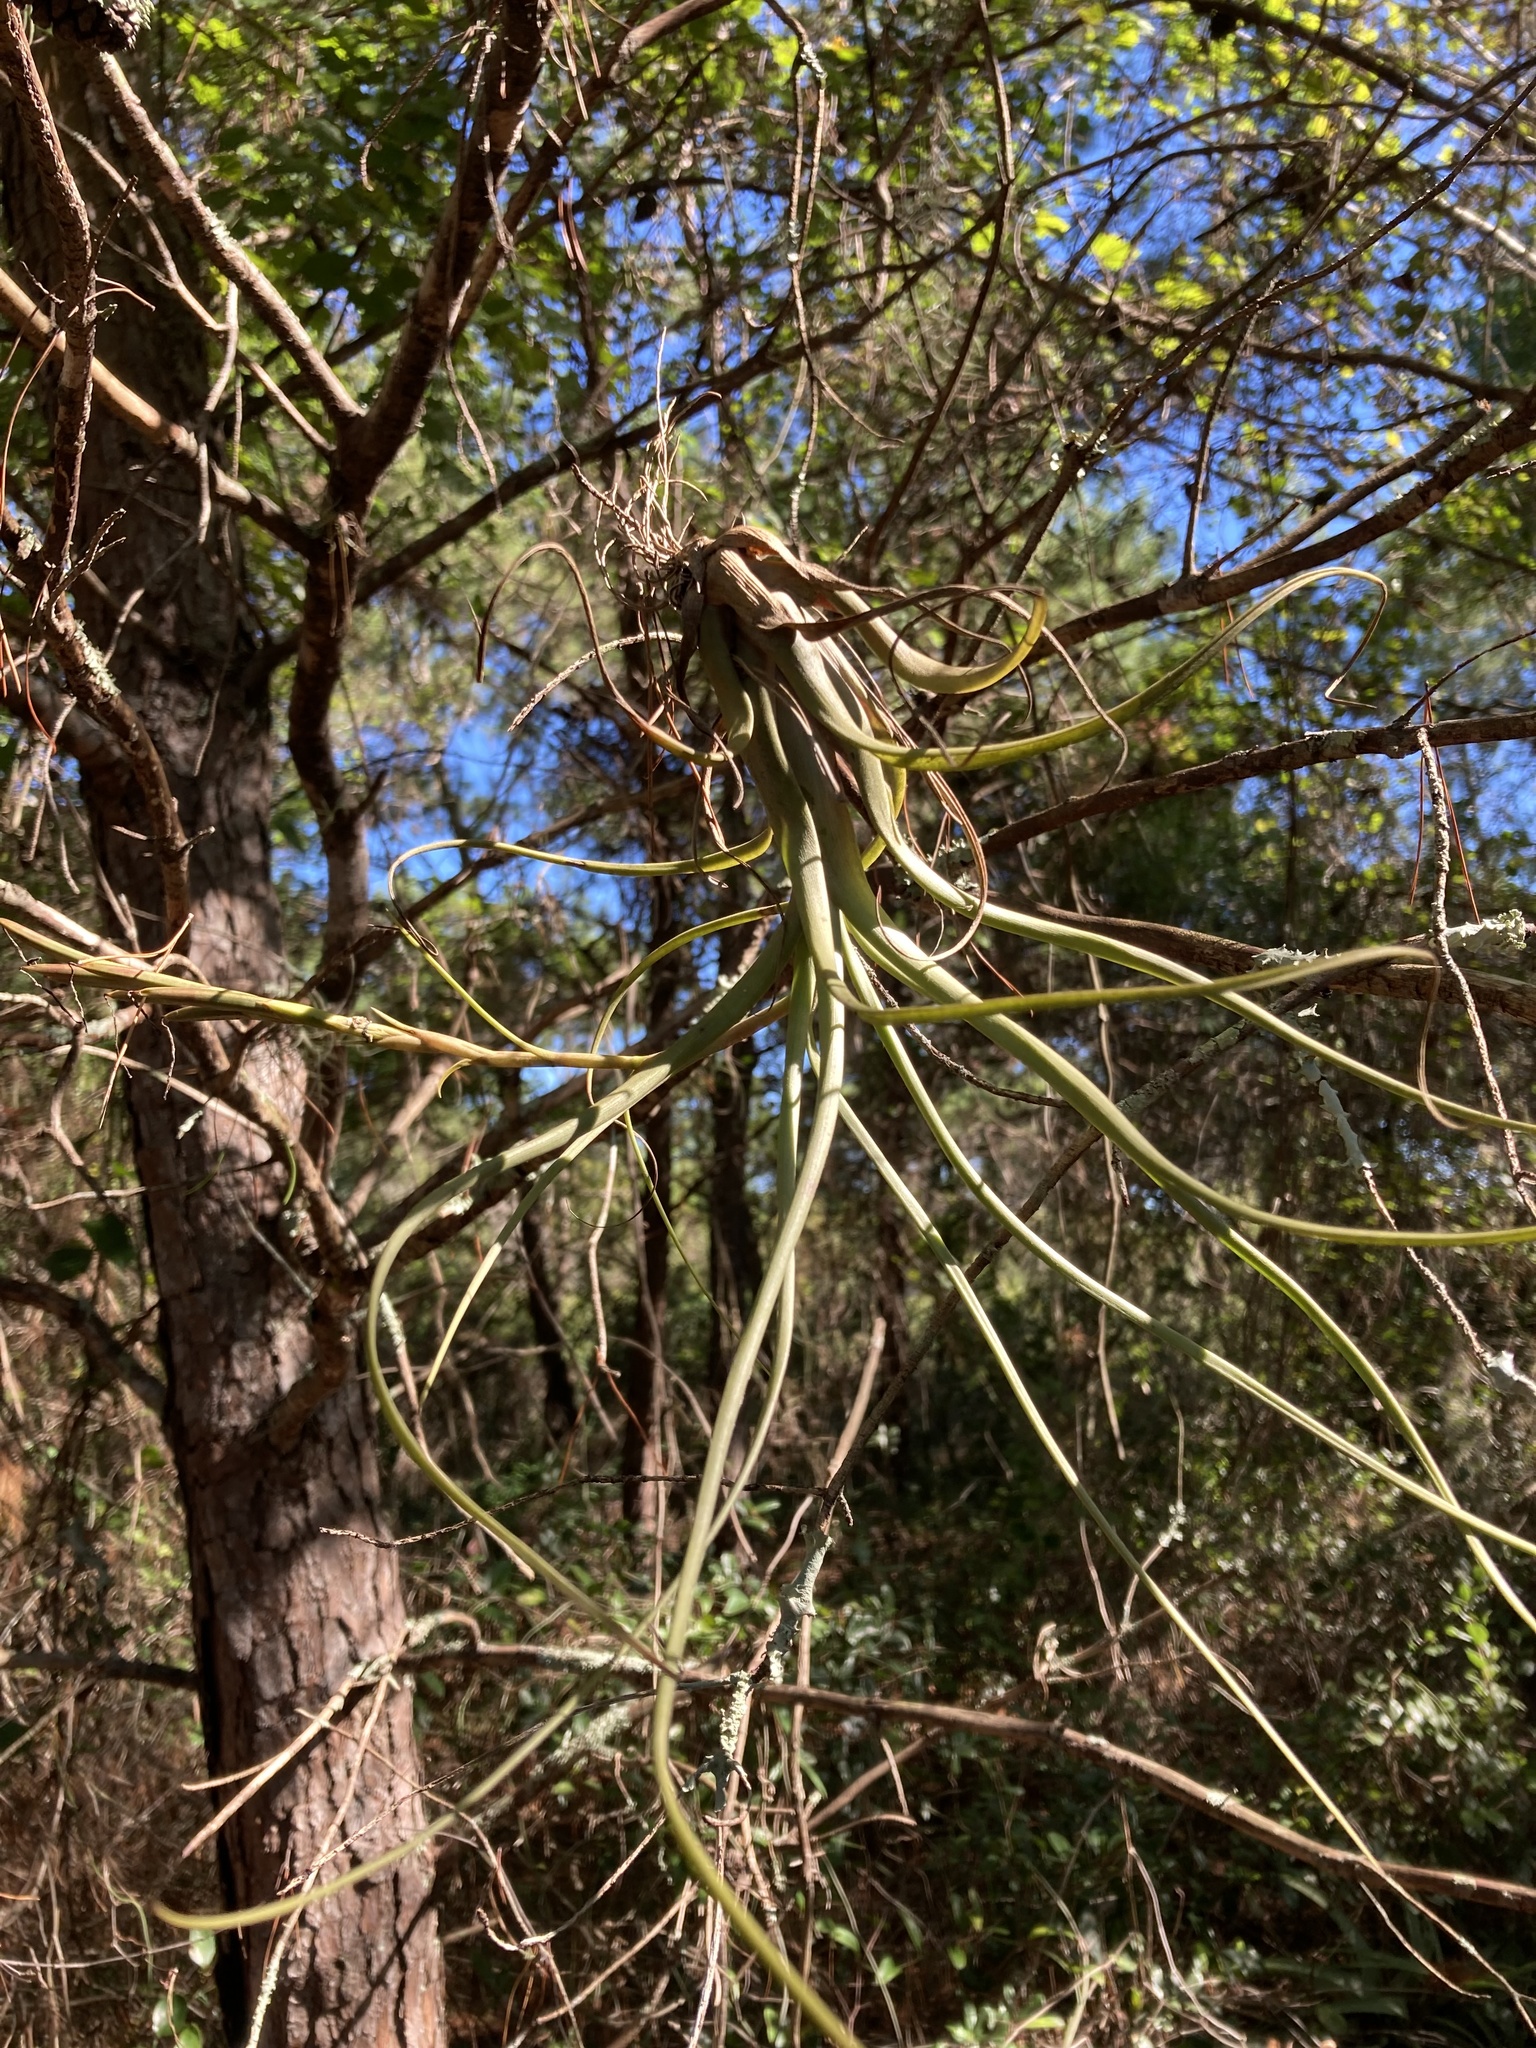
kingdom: Plantae
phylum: Tracheophyta
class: Liliopsida
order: Poales
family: Bromeliaceae
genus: Tillandsia
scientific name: Tillandsia balbisiana
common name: Northern needleleaf
